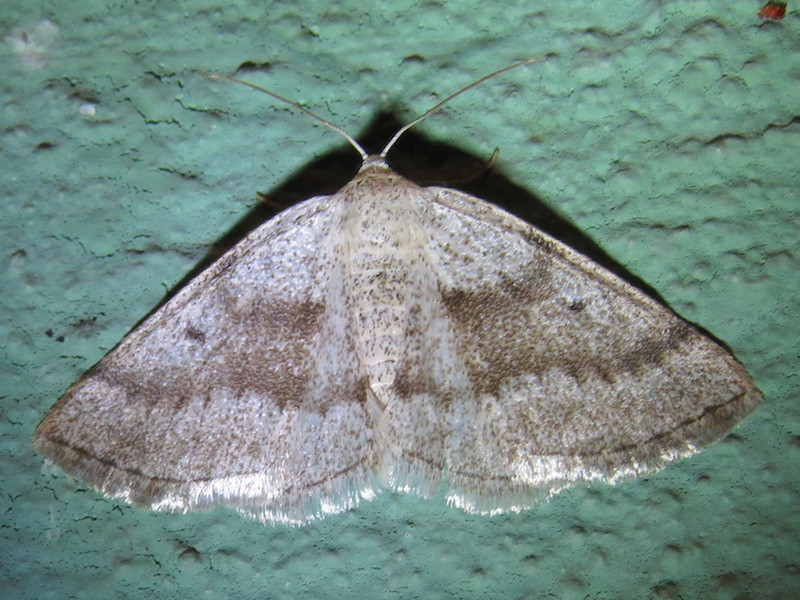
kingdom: Animalia
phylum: Arthropoda
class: Insecta
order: Lepidoptera
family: Geometridae
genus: Lomographa
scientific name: Lomographa glomeraria
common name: Gray spring moth
